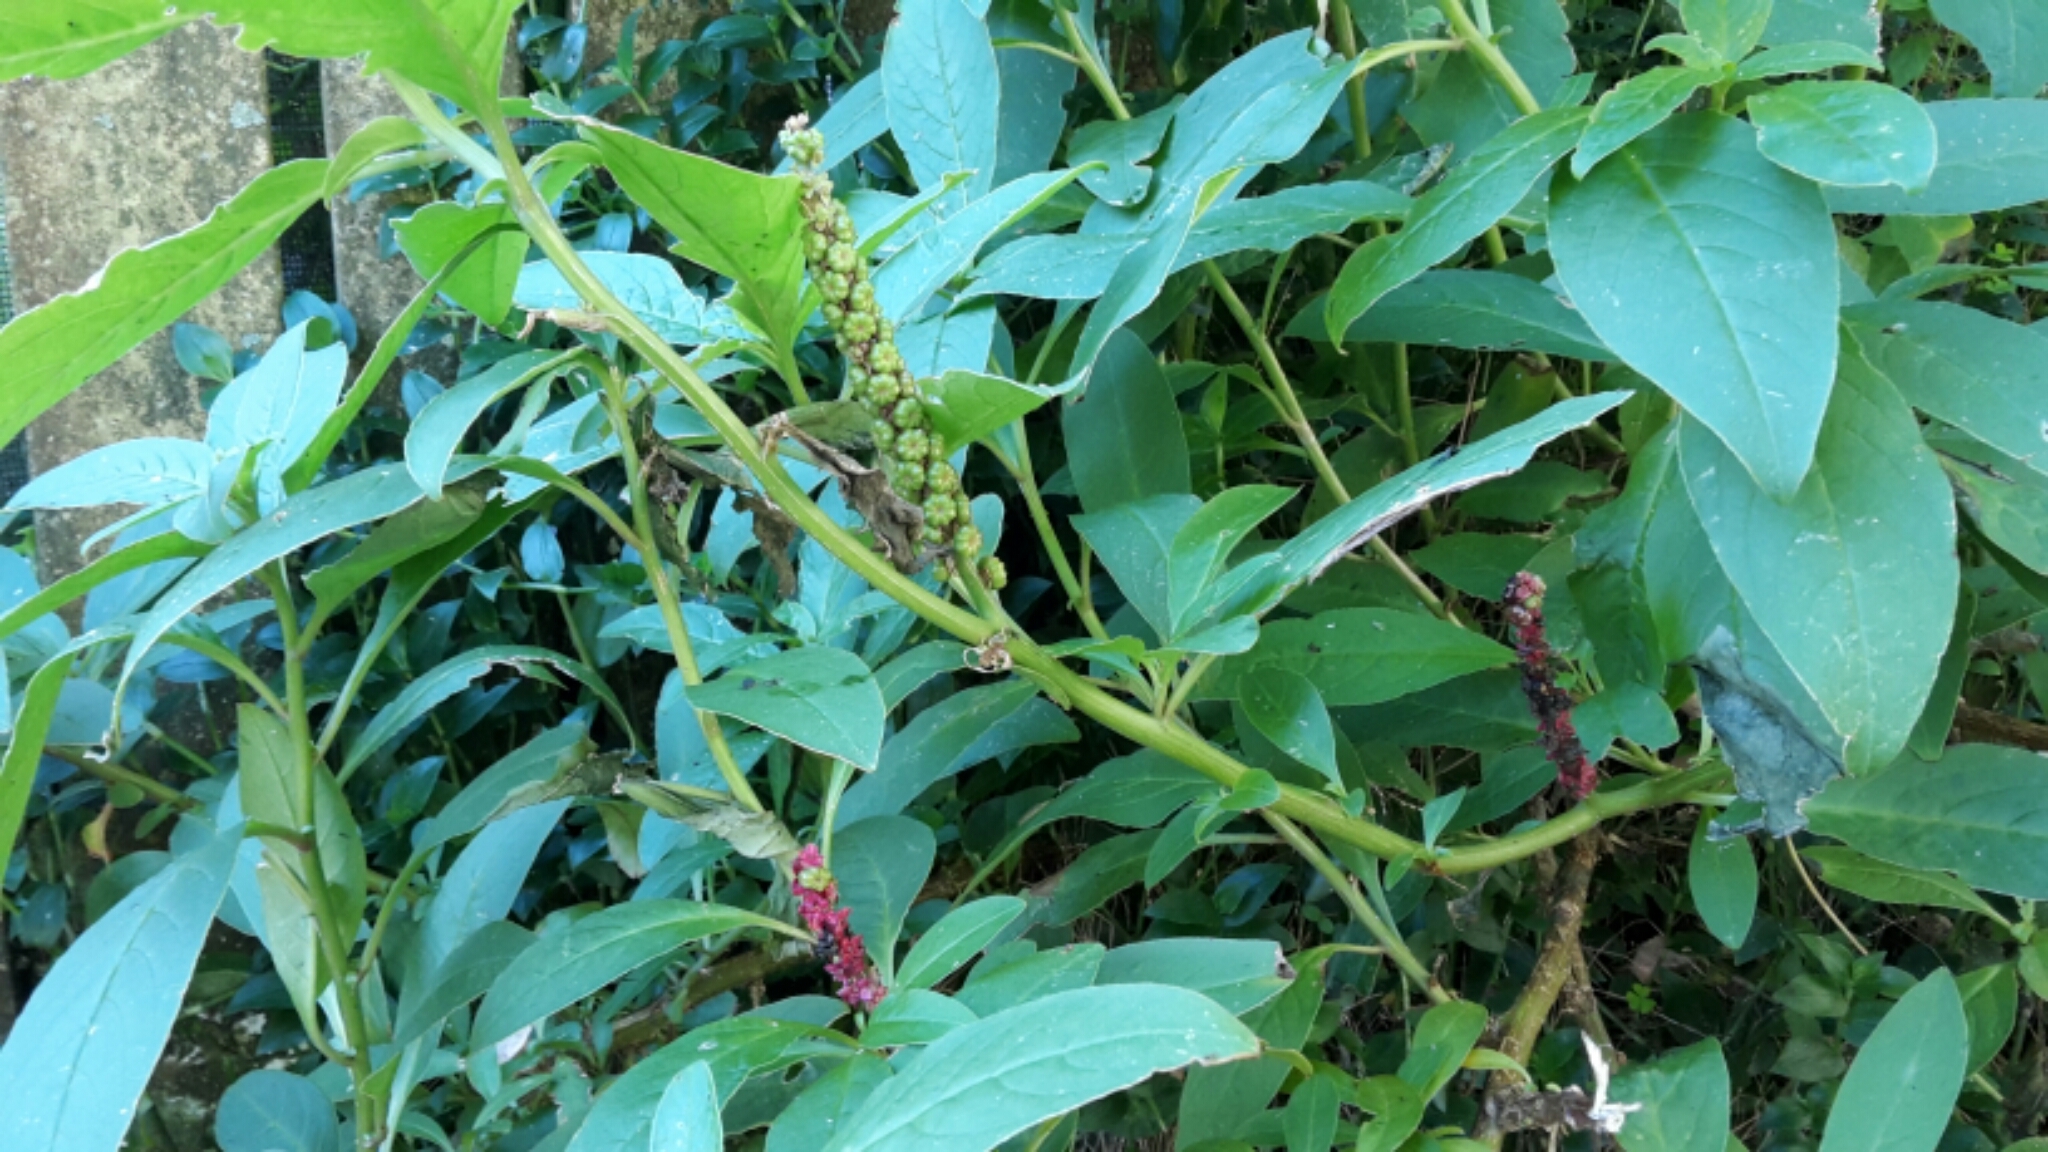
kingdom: Plantae
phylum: Tracheophyta
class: Magnoliopsida
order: Caryophyllales
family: Phytolaccaceae
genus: Phytolacca
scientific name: Phytolacca icosandra
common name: Button pokeweed
